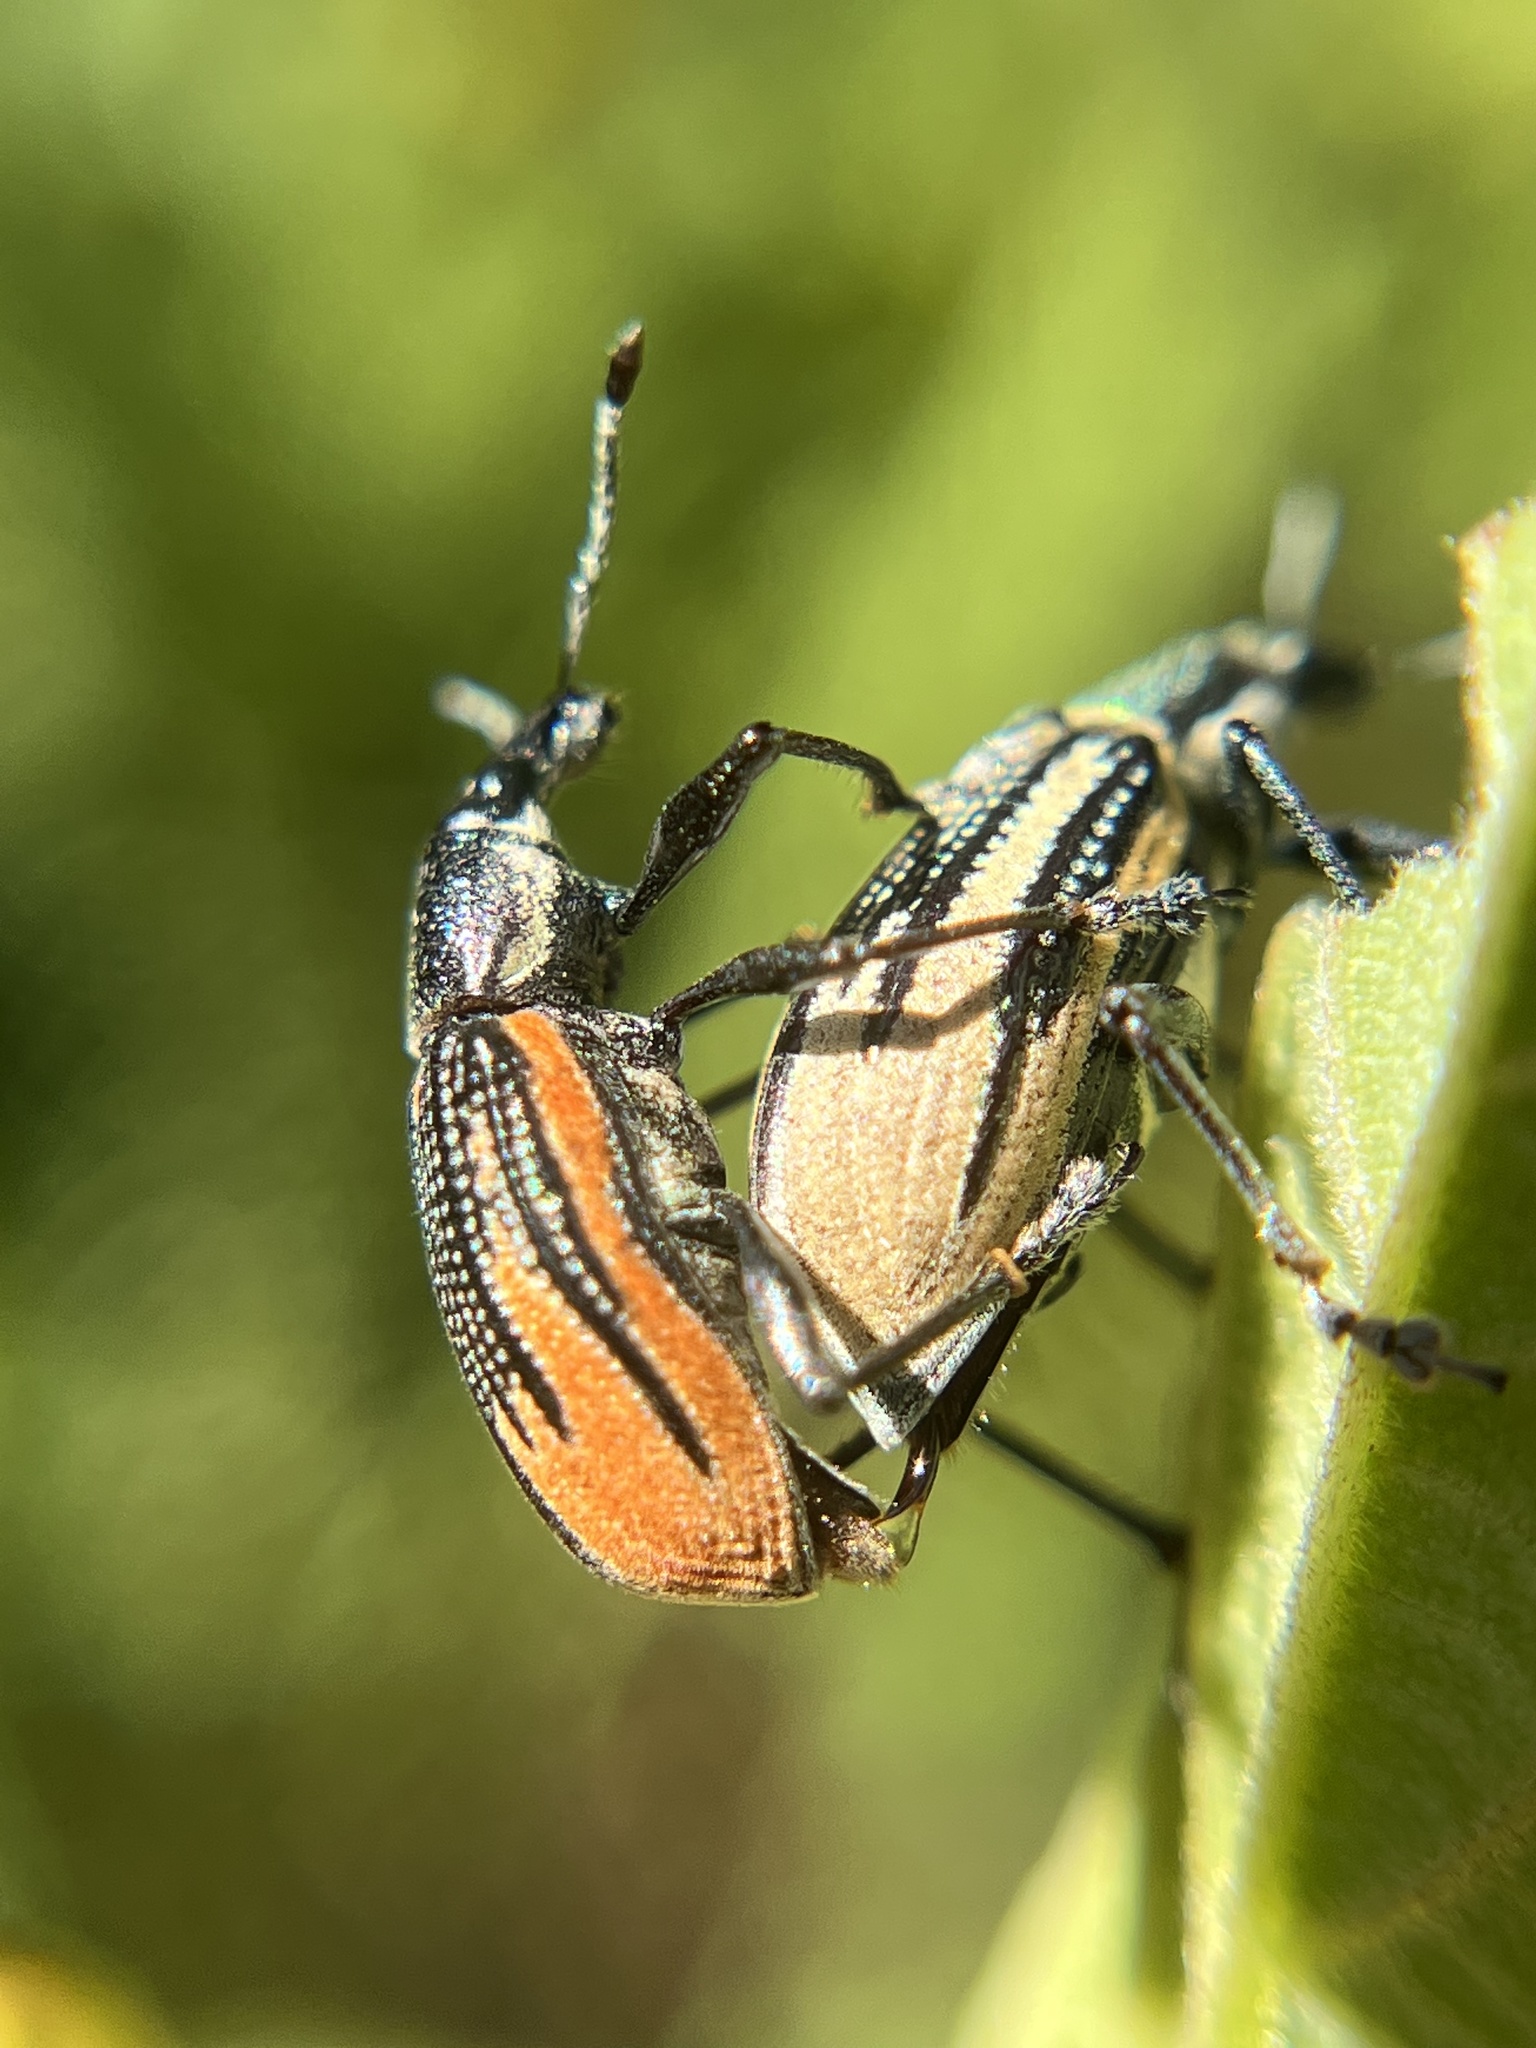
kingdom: Animalia
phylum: Arthropoda
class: Insecta
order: Coleoptera
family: Curculionidae
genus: Diaprepes
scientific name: Diaprepes abbreviatus
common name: Root weevil
